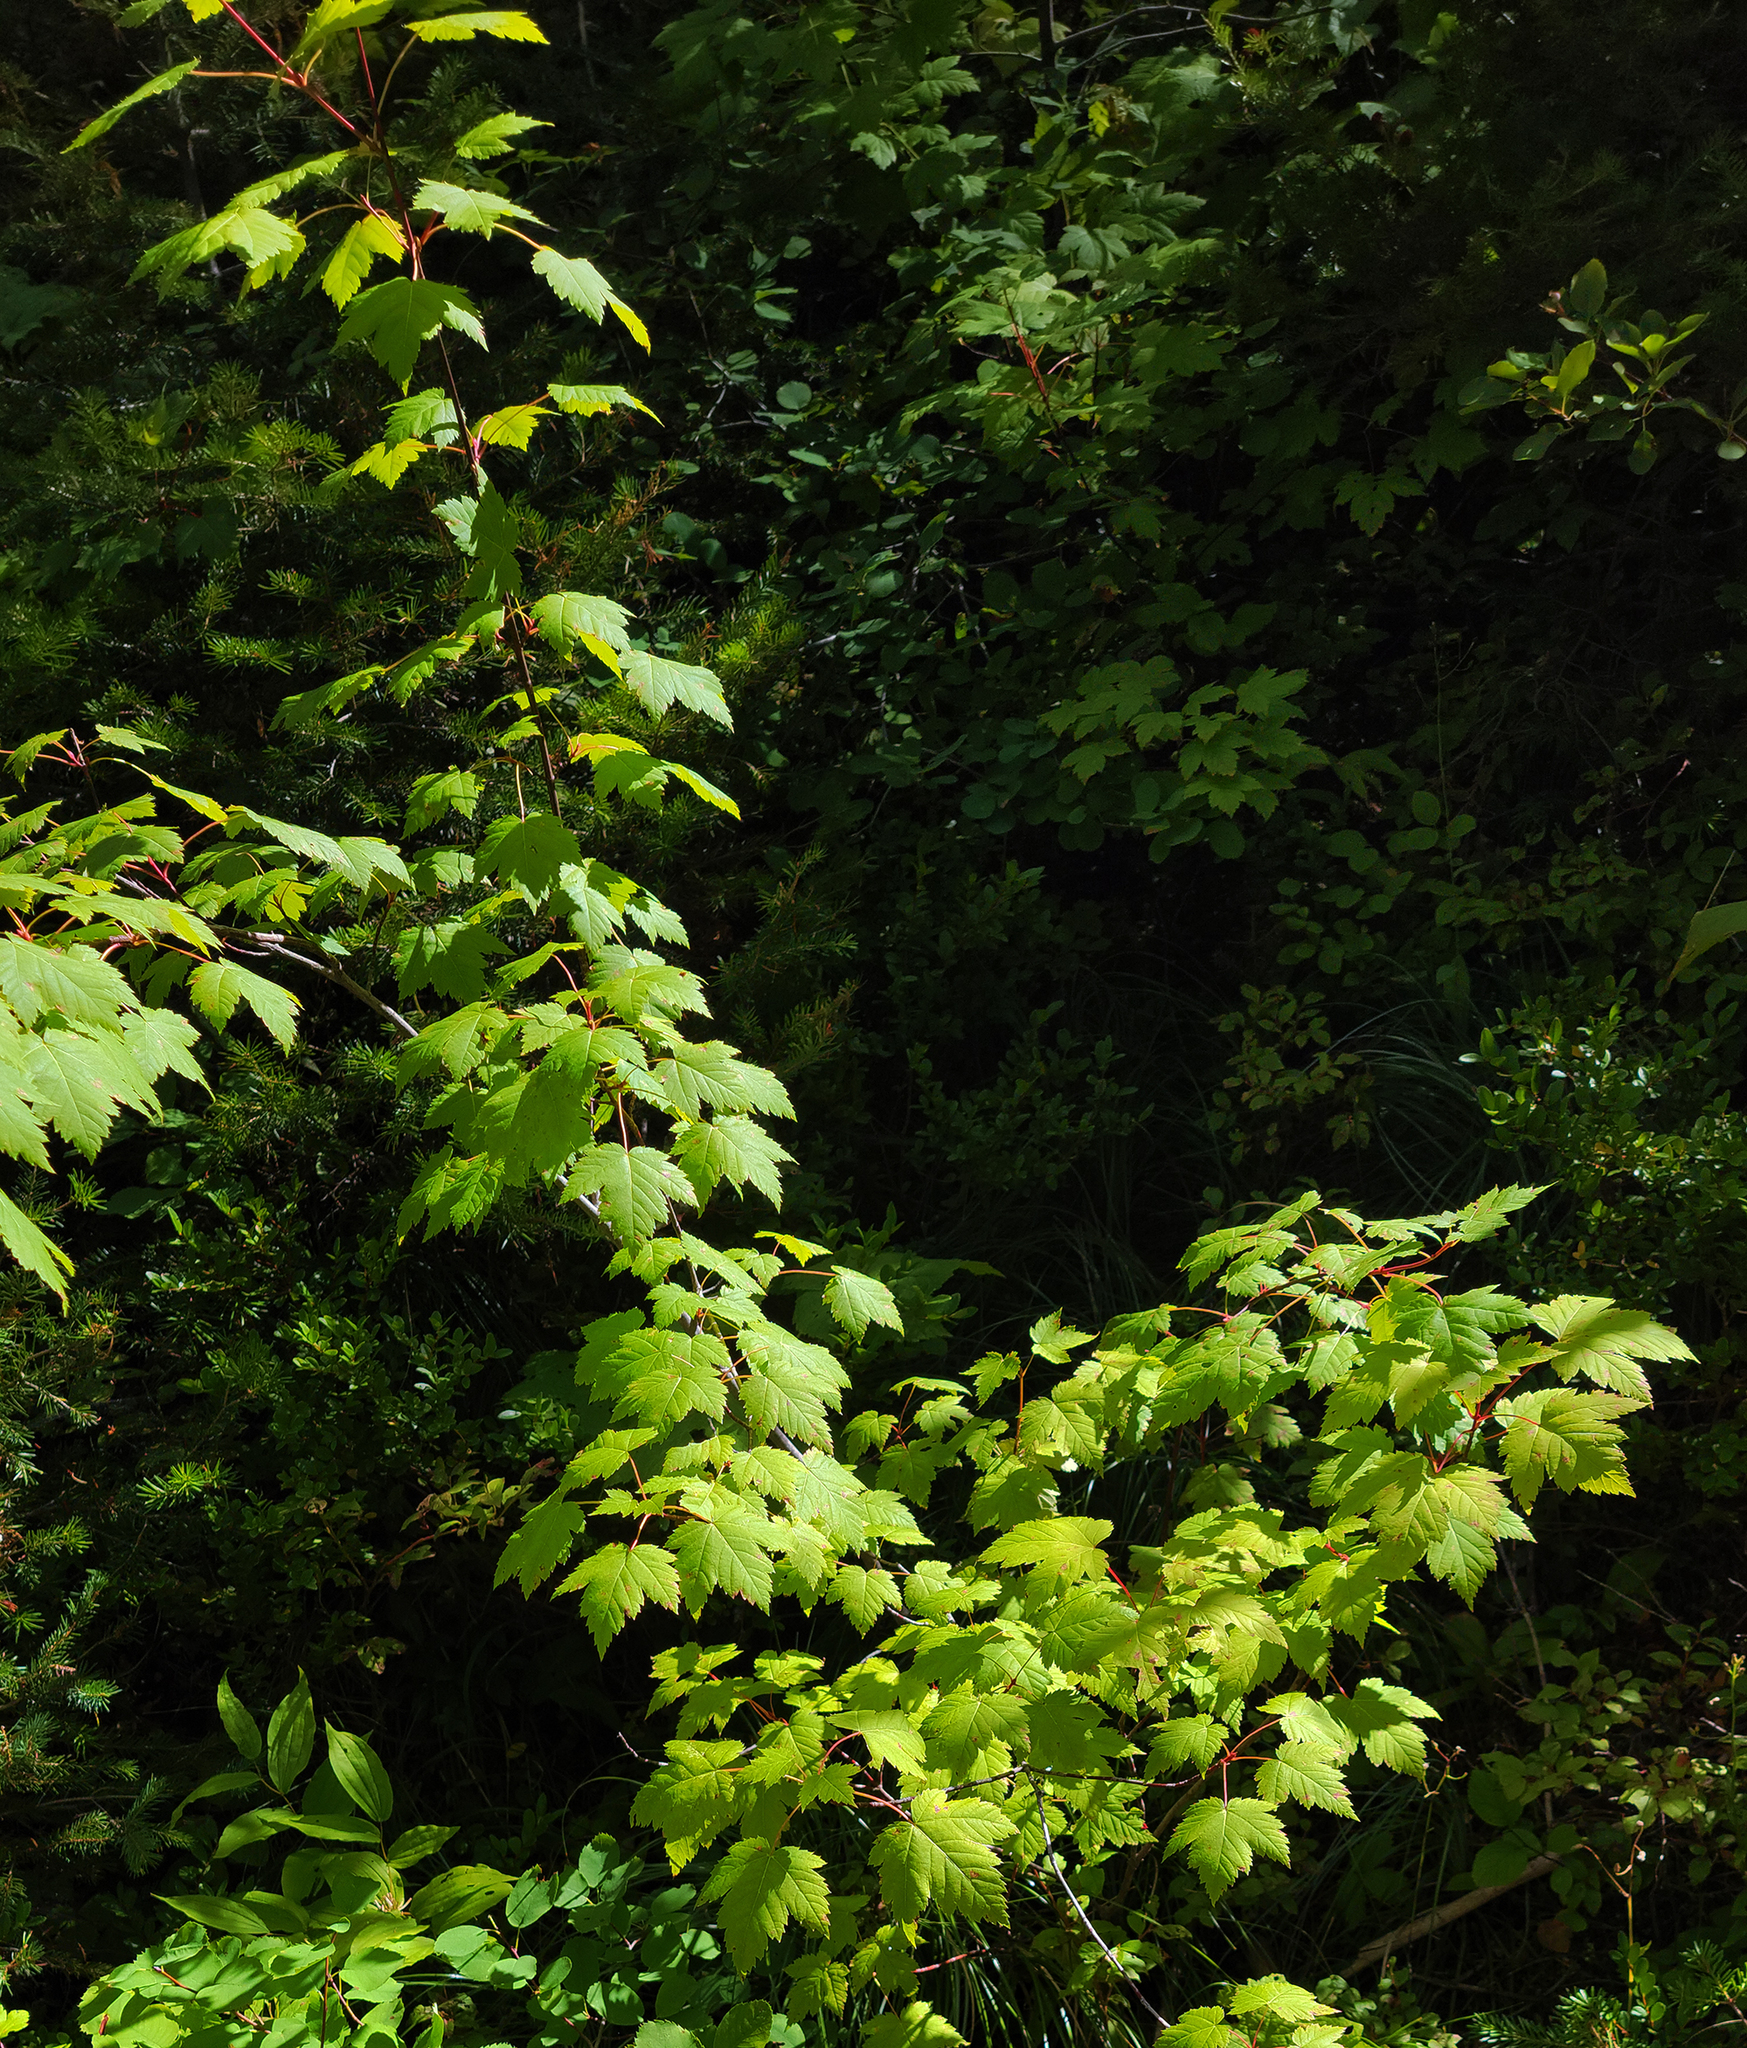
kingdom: Plantae
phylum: Tracheophyta
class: Magnoliopsida
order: Sapindales
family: Sapindaceae
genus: Acer
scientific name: Acer glabrum
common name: Rocky mountain maple
